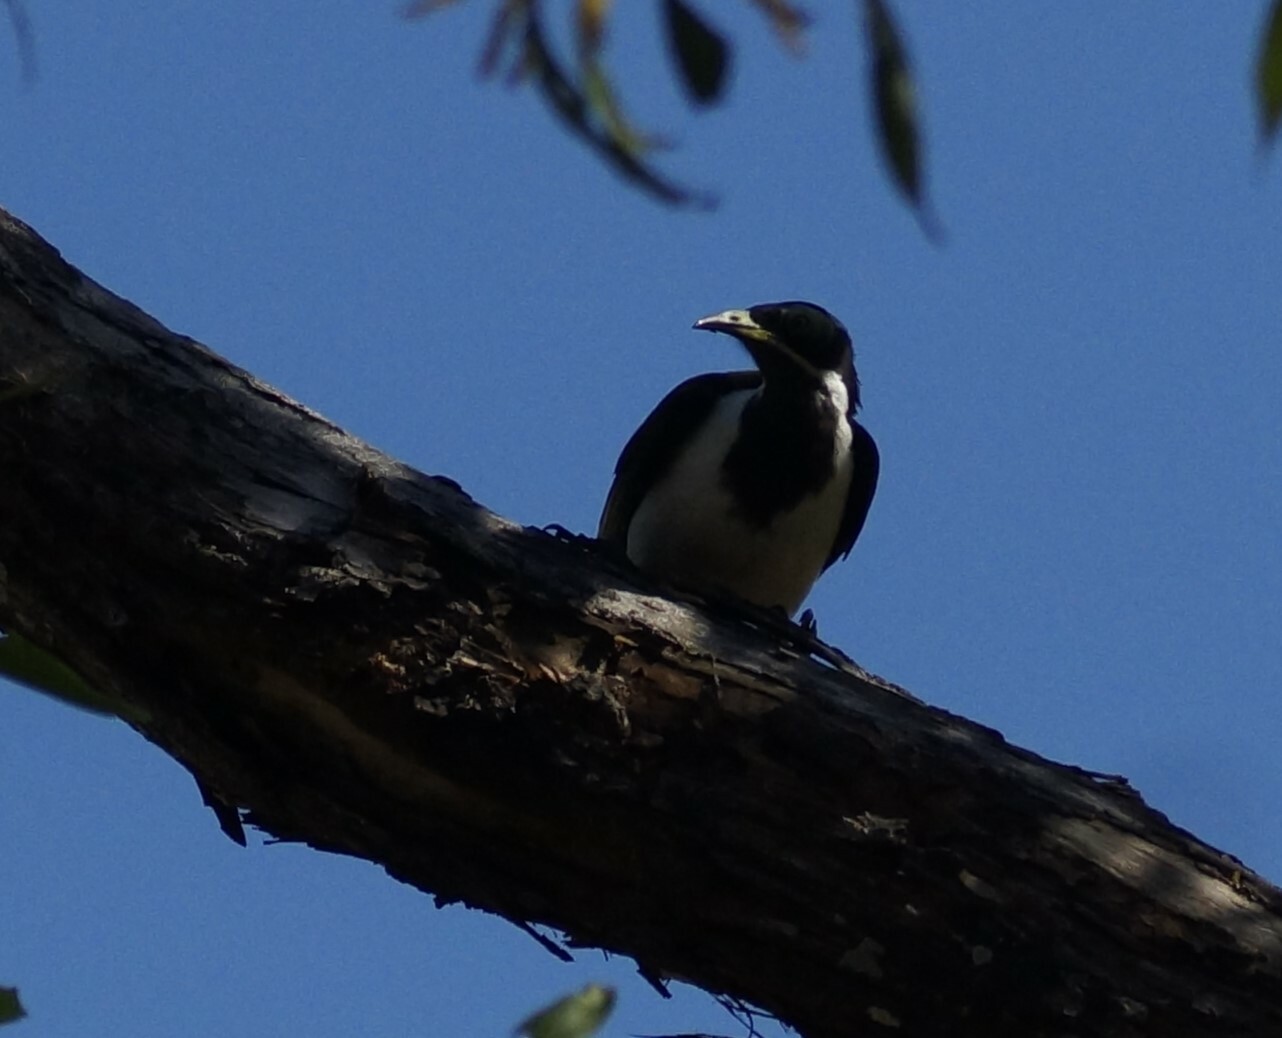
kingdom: Animalia
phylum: Chordata
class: Aves
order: Passeriformes
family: Meliphagidae
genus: Entomyzon
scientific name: Entomyzon cyanotis
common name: Blue-faced honeyeater
